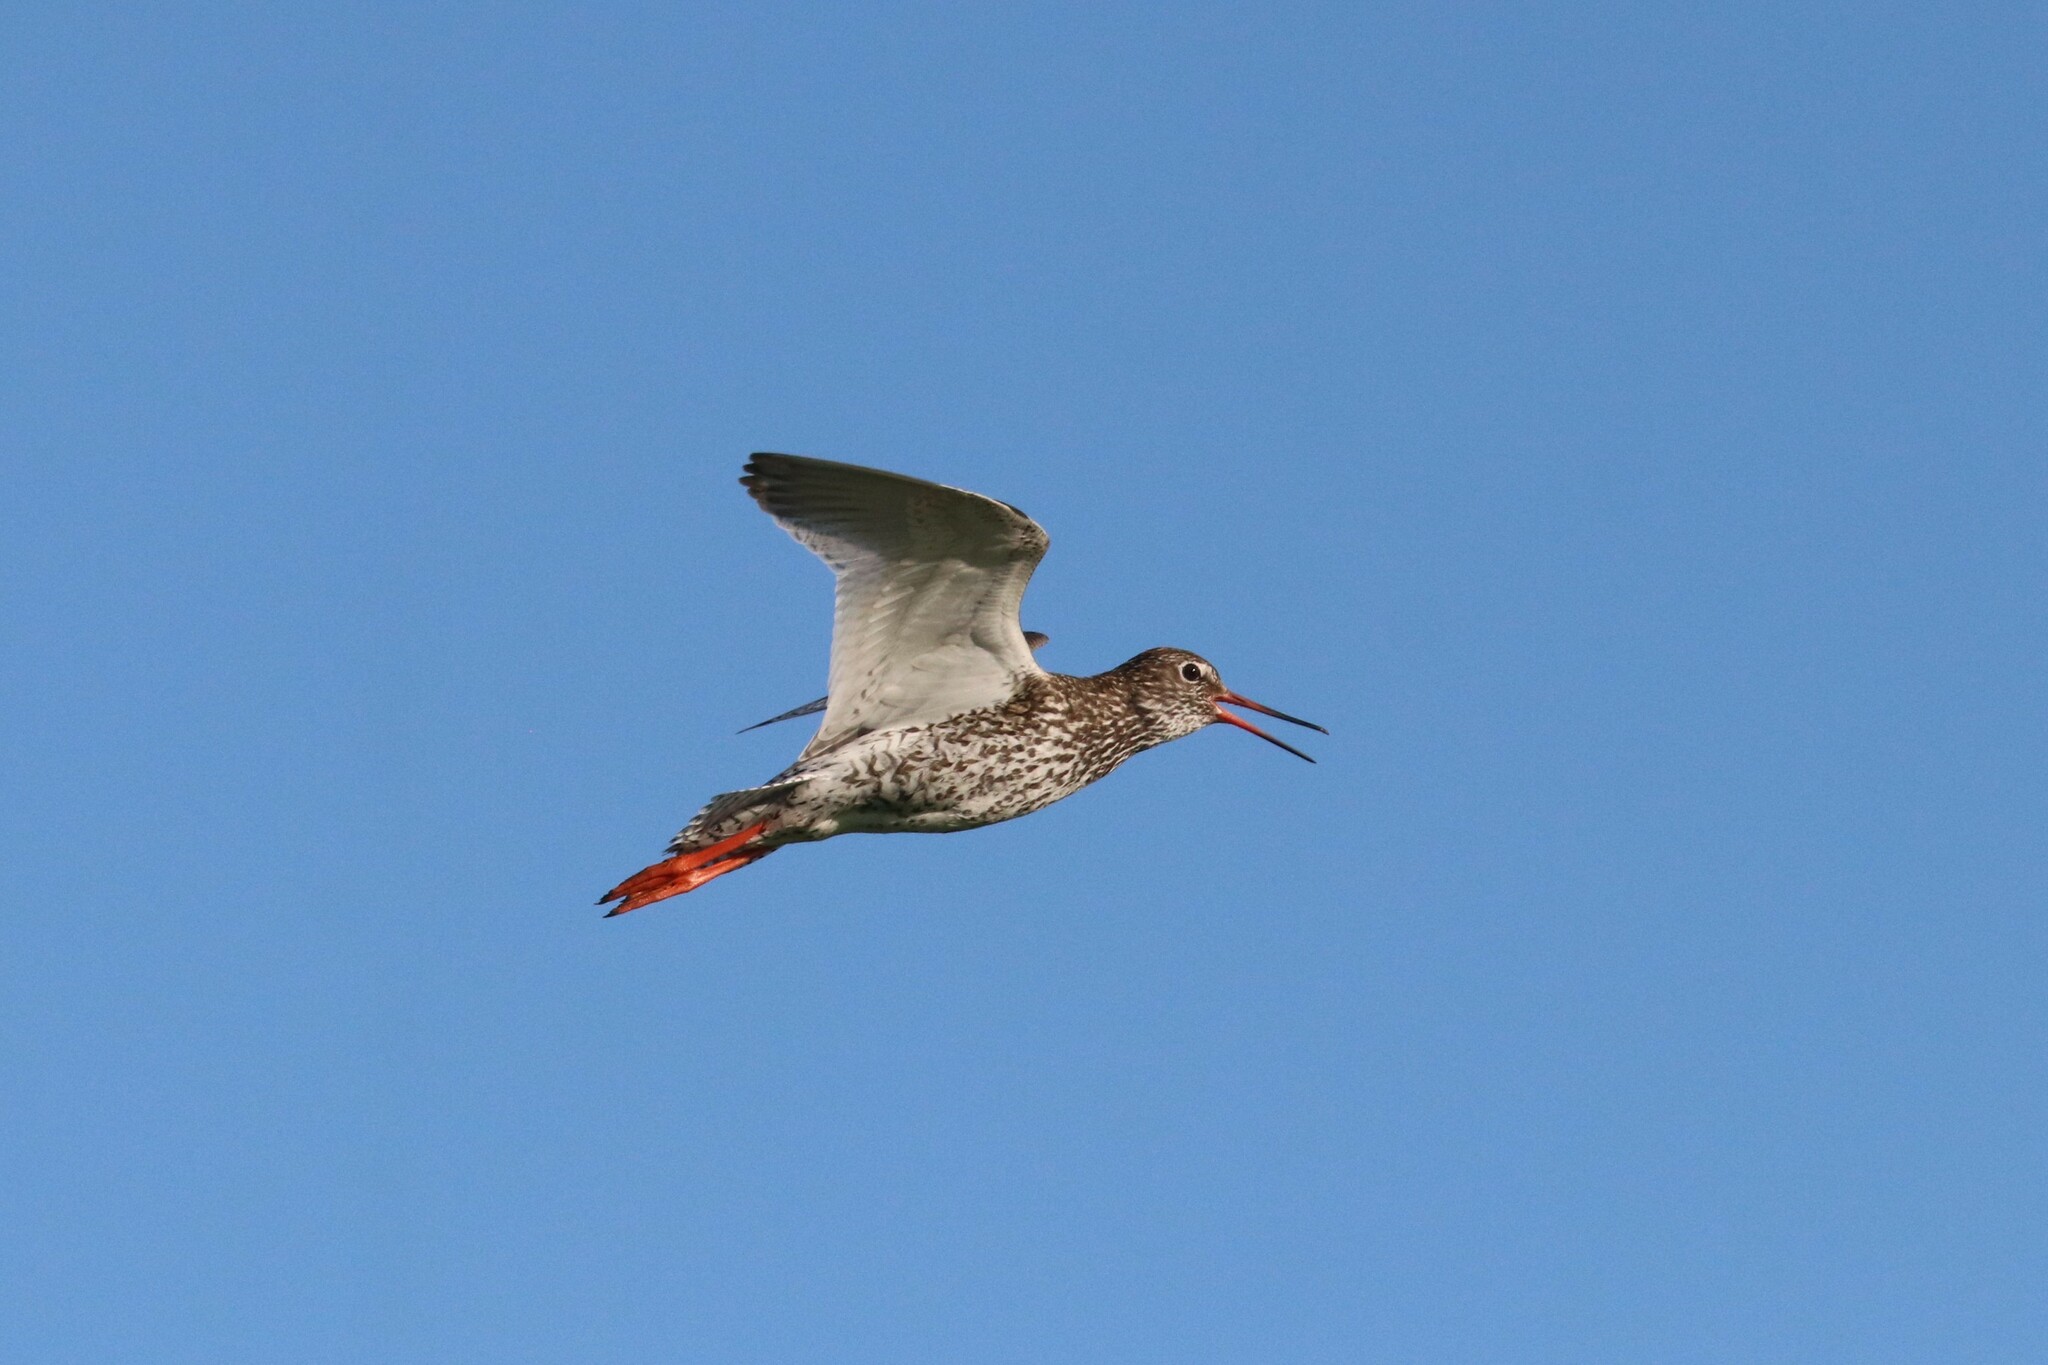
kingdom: Animalia
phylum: Chordata
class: Aves
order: Charadriiformes
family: Scolopacidae
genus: Tringa
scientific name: Tringa totanus
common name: Common redshank
